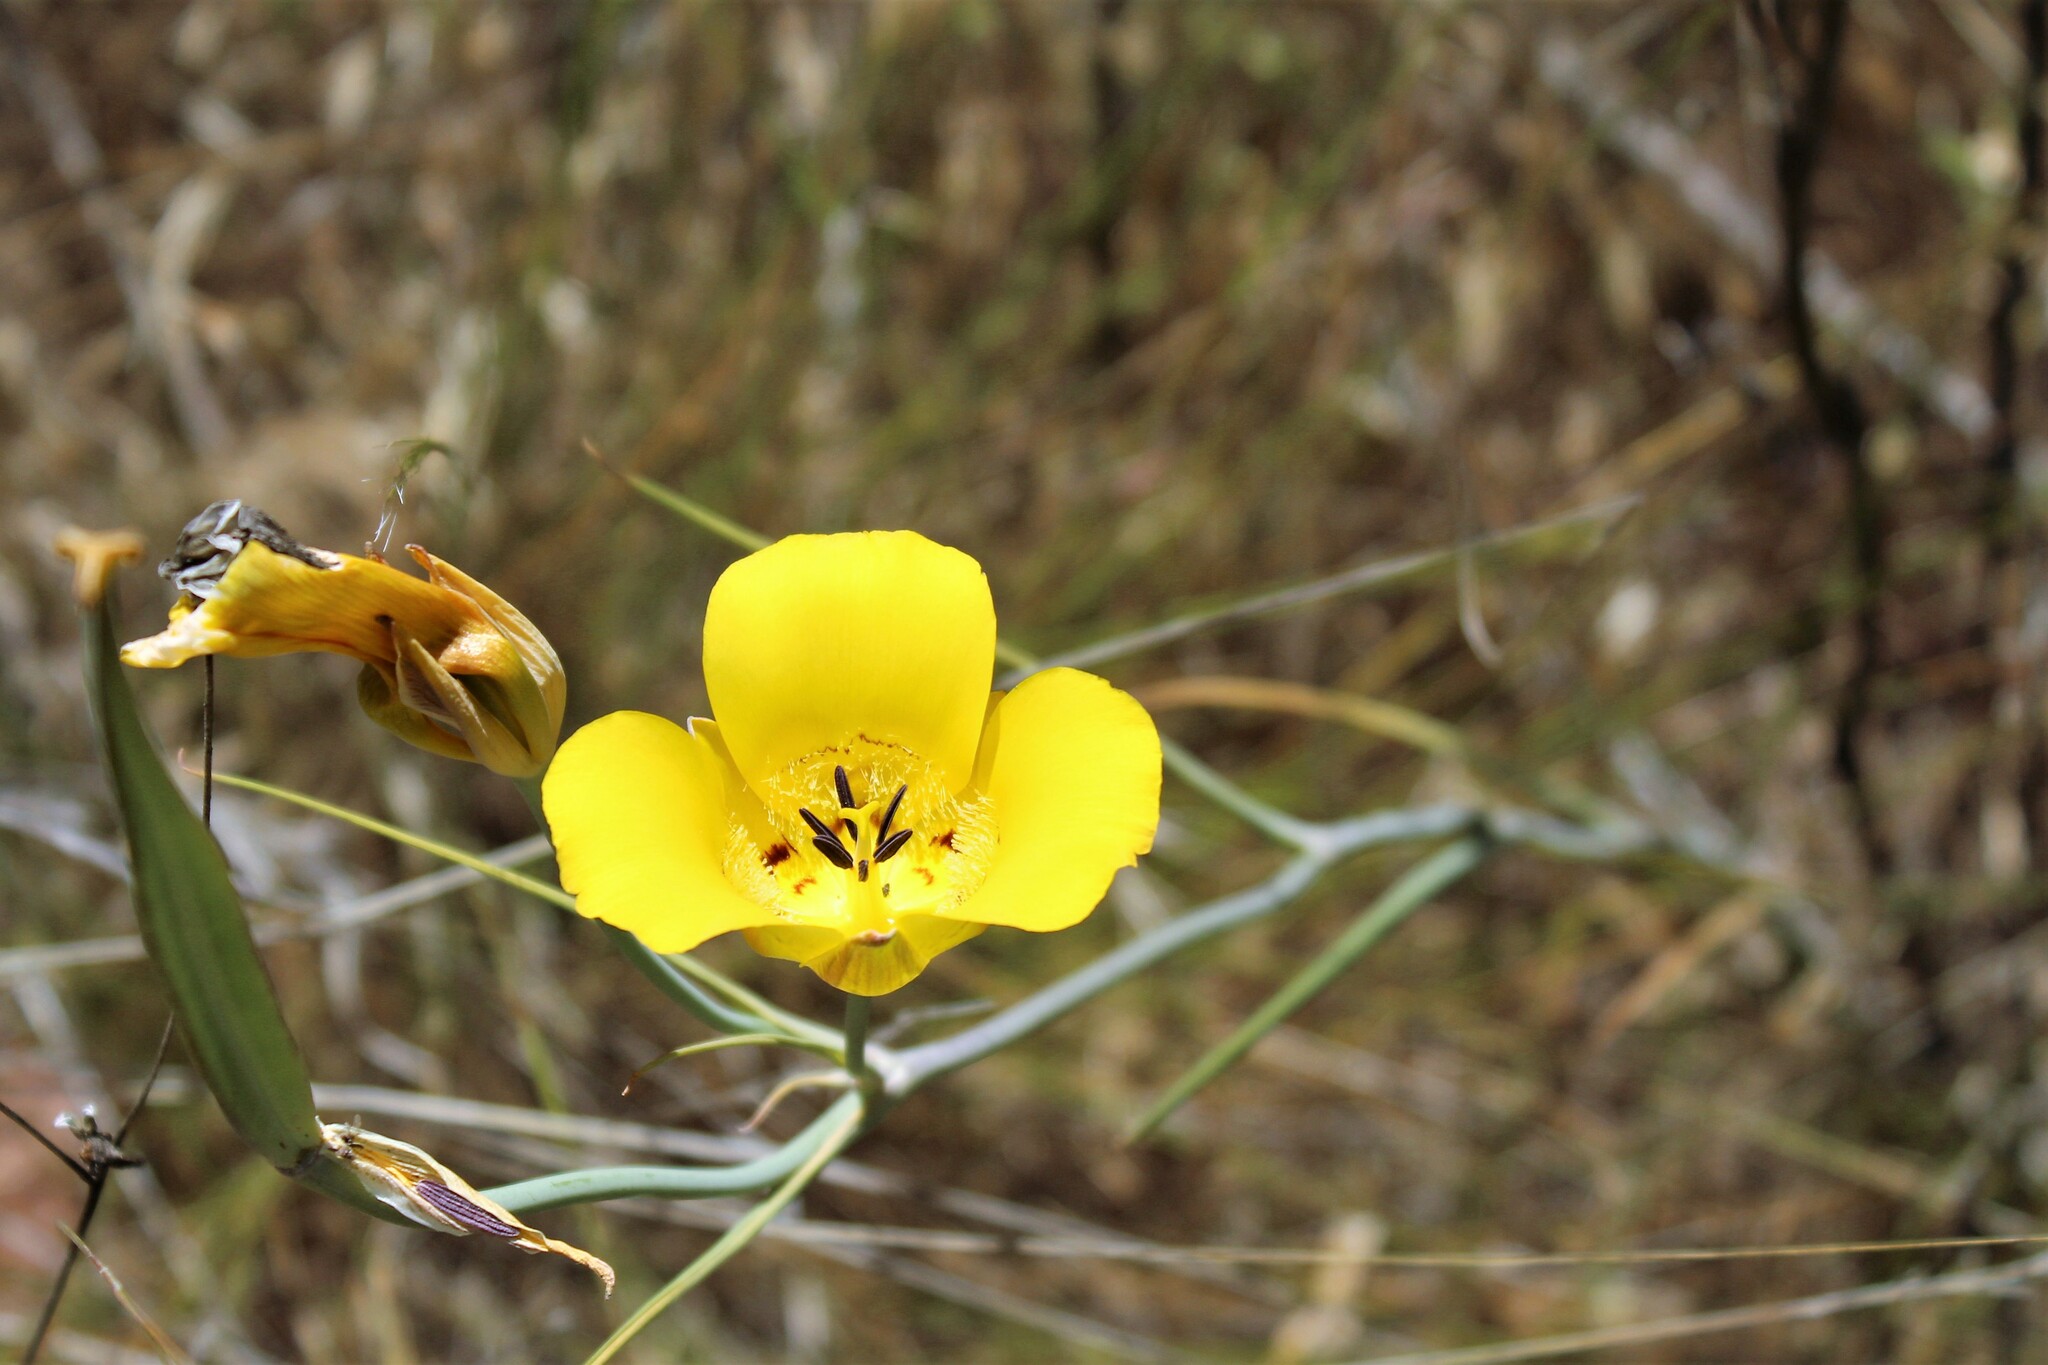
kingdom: Plantae
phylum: Tracheophyta
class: Liliopsida
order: Liliales
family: Liliaceae
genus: Calochortus
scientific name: Calochortus clavatus
